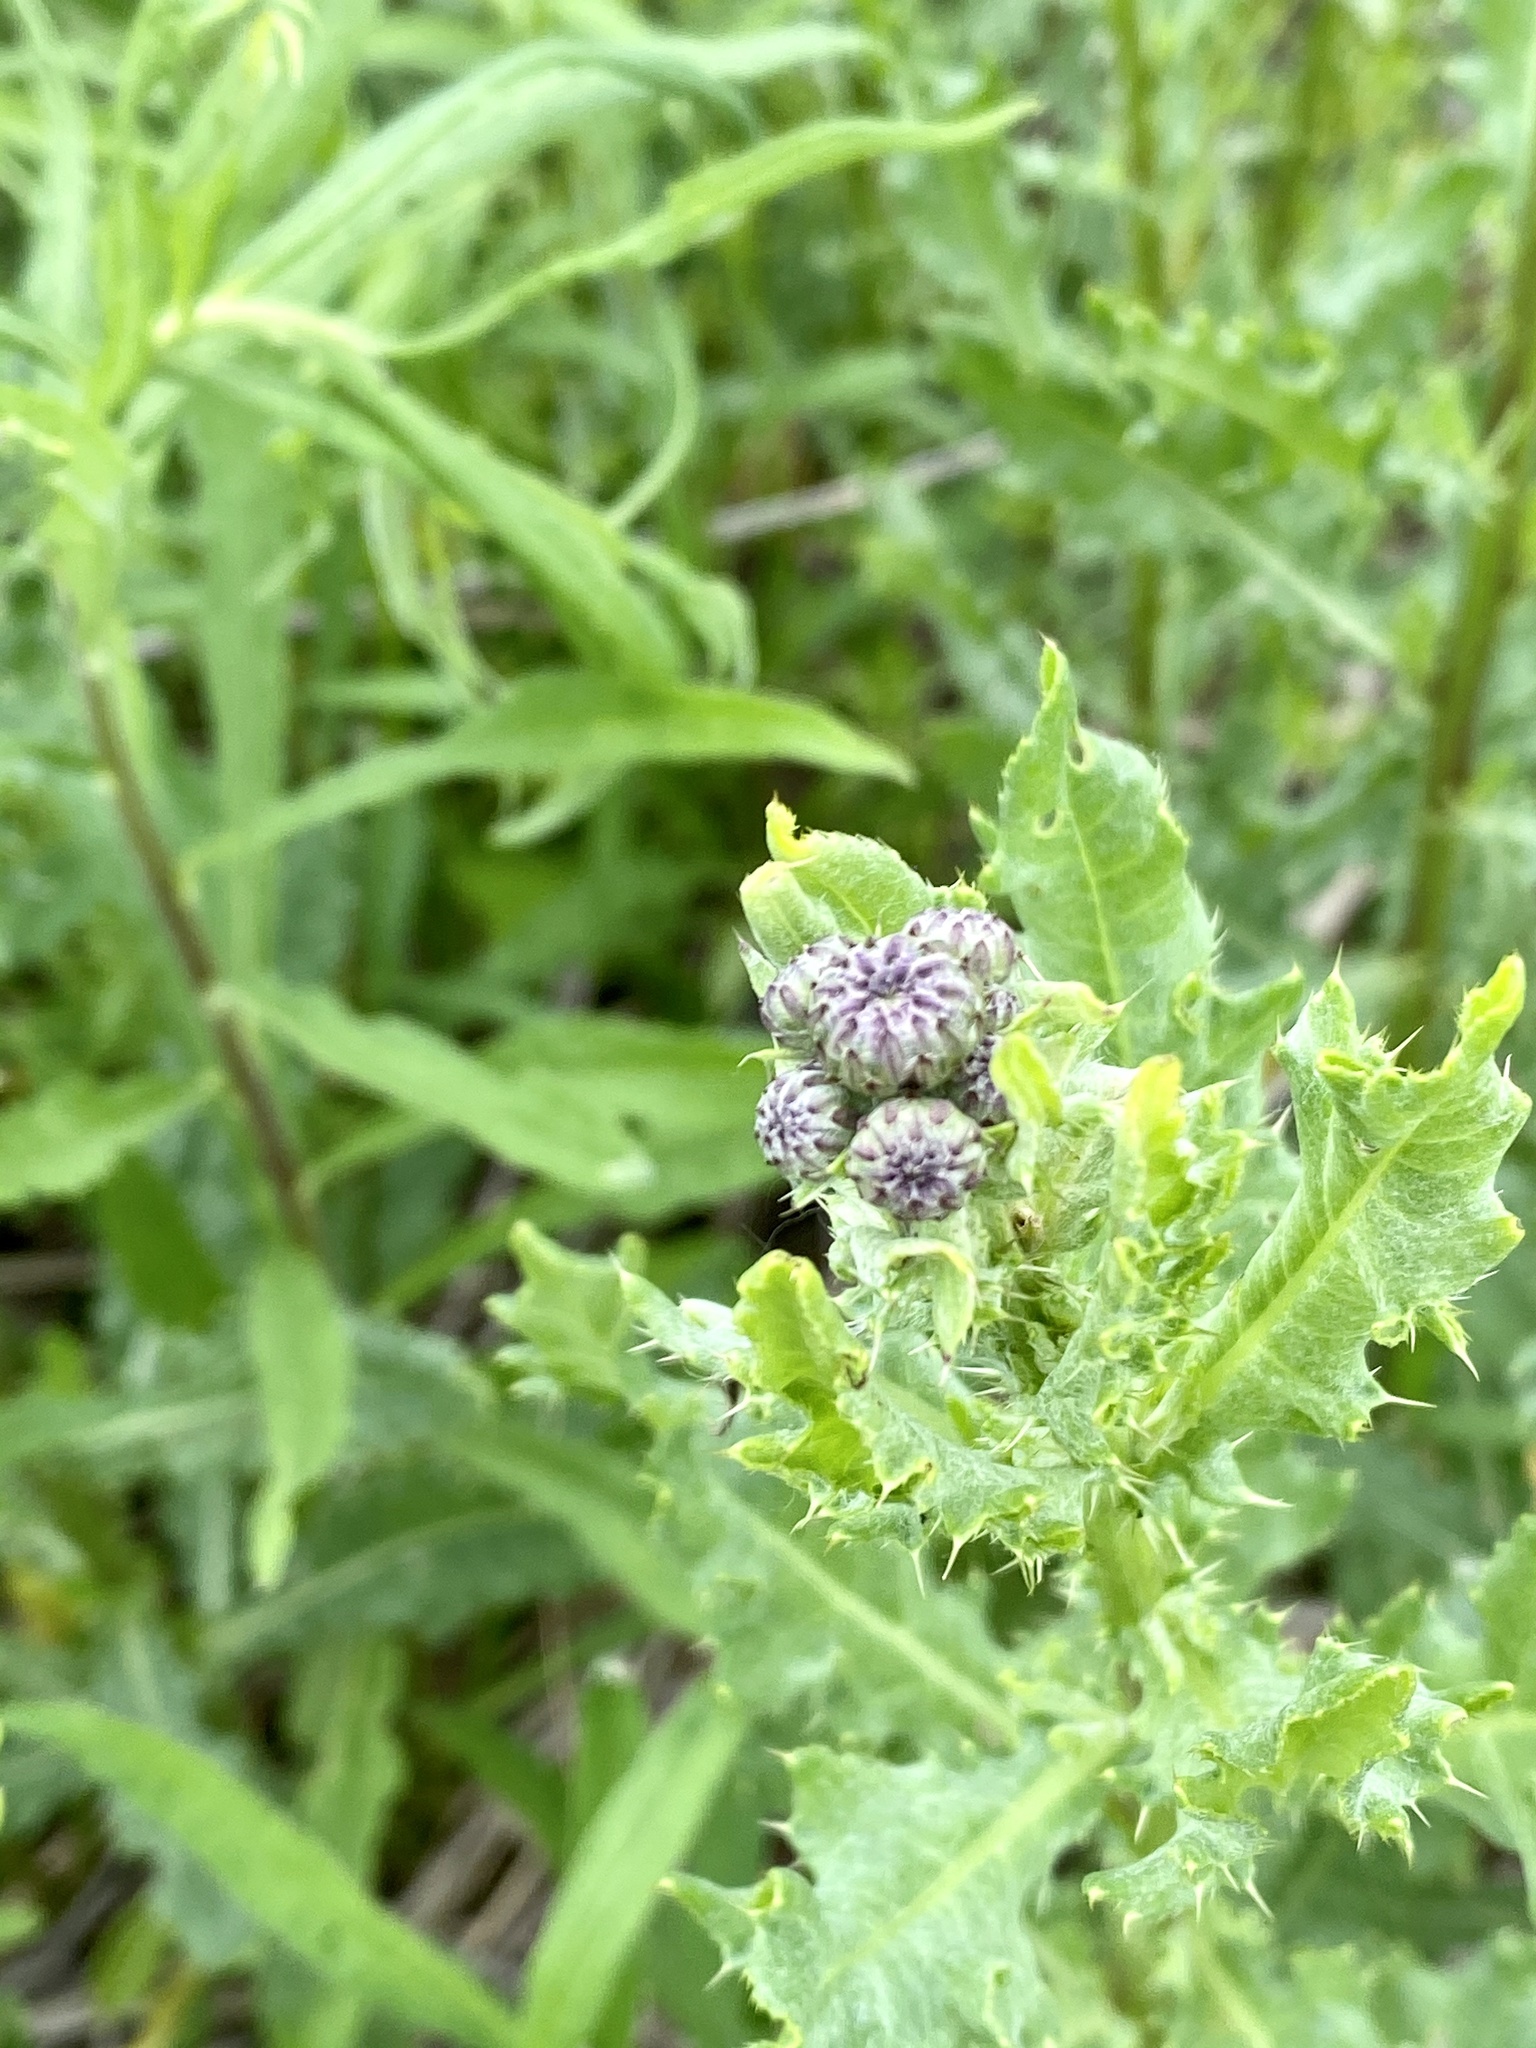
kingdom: Plantae
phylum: Tracheophyta
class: Magnoliopsida
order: Asterales
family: Asteraceae
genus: Cirsium
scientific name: Cirsium arvense
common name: Creeping thistle
